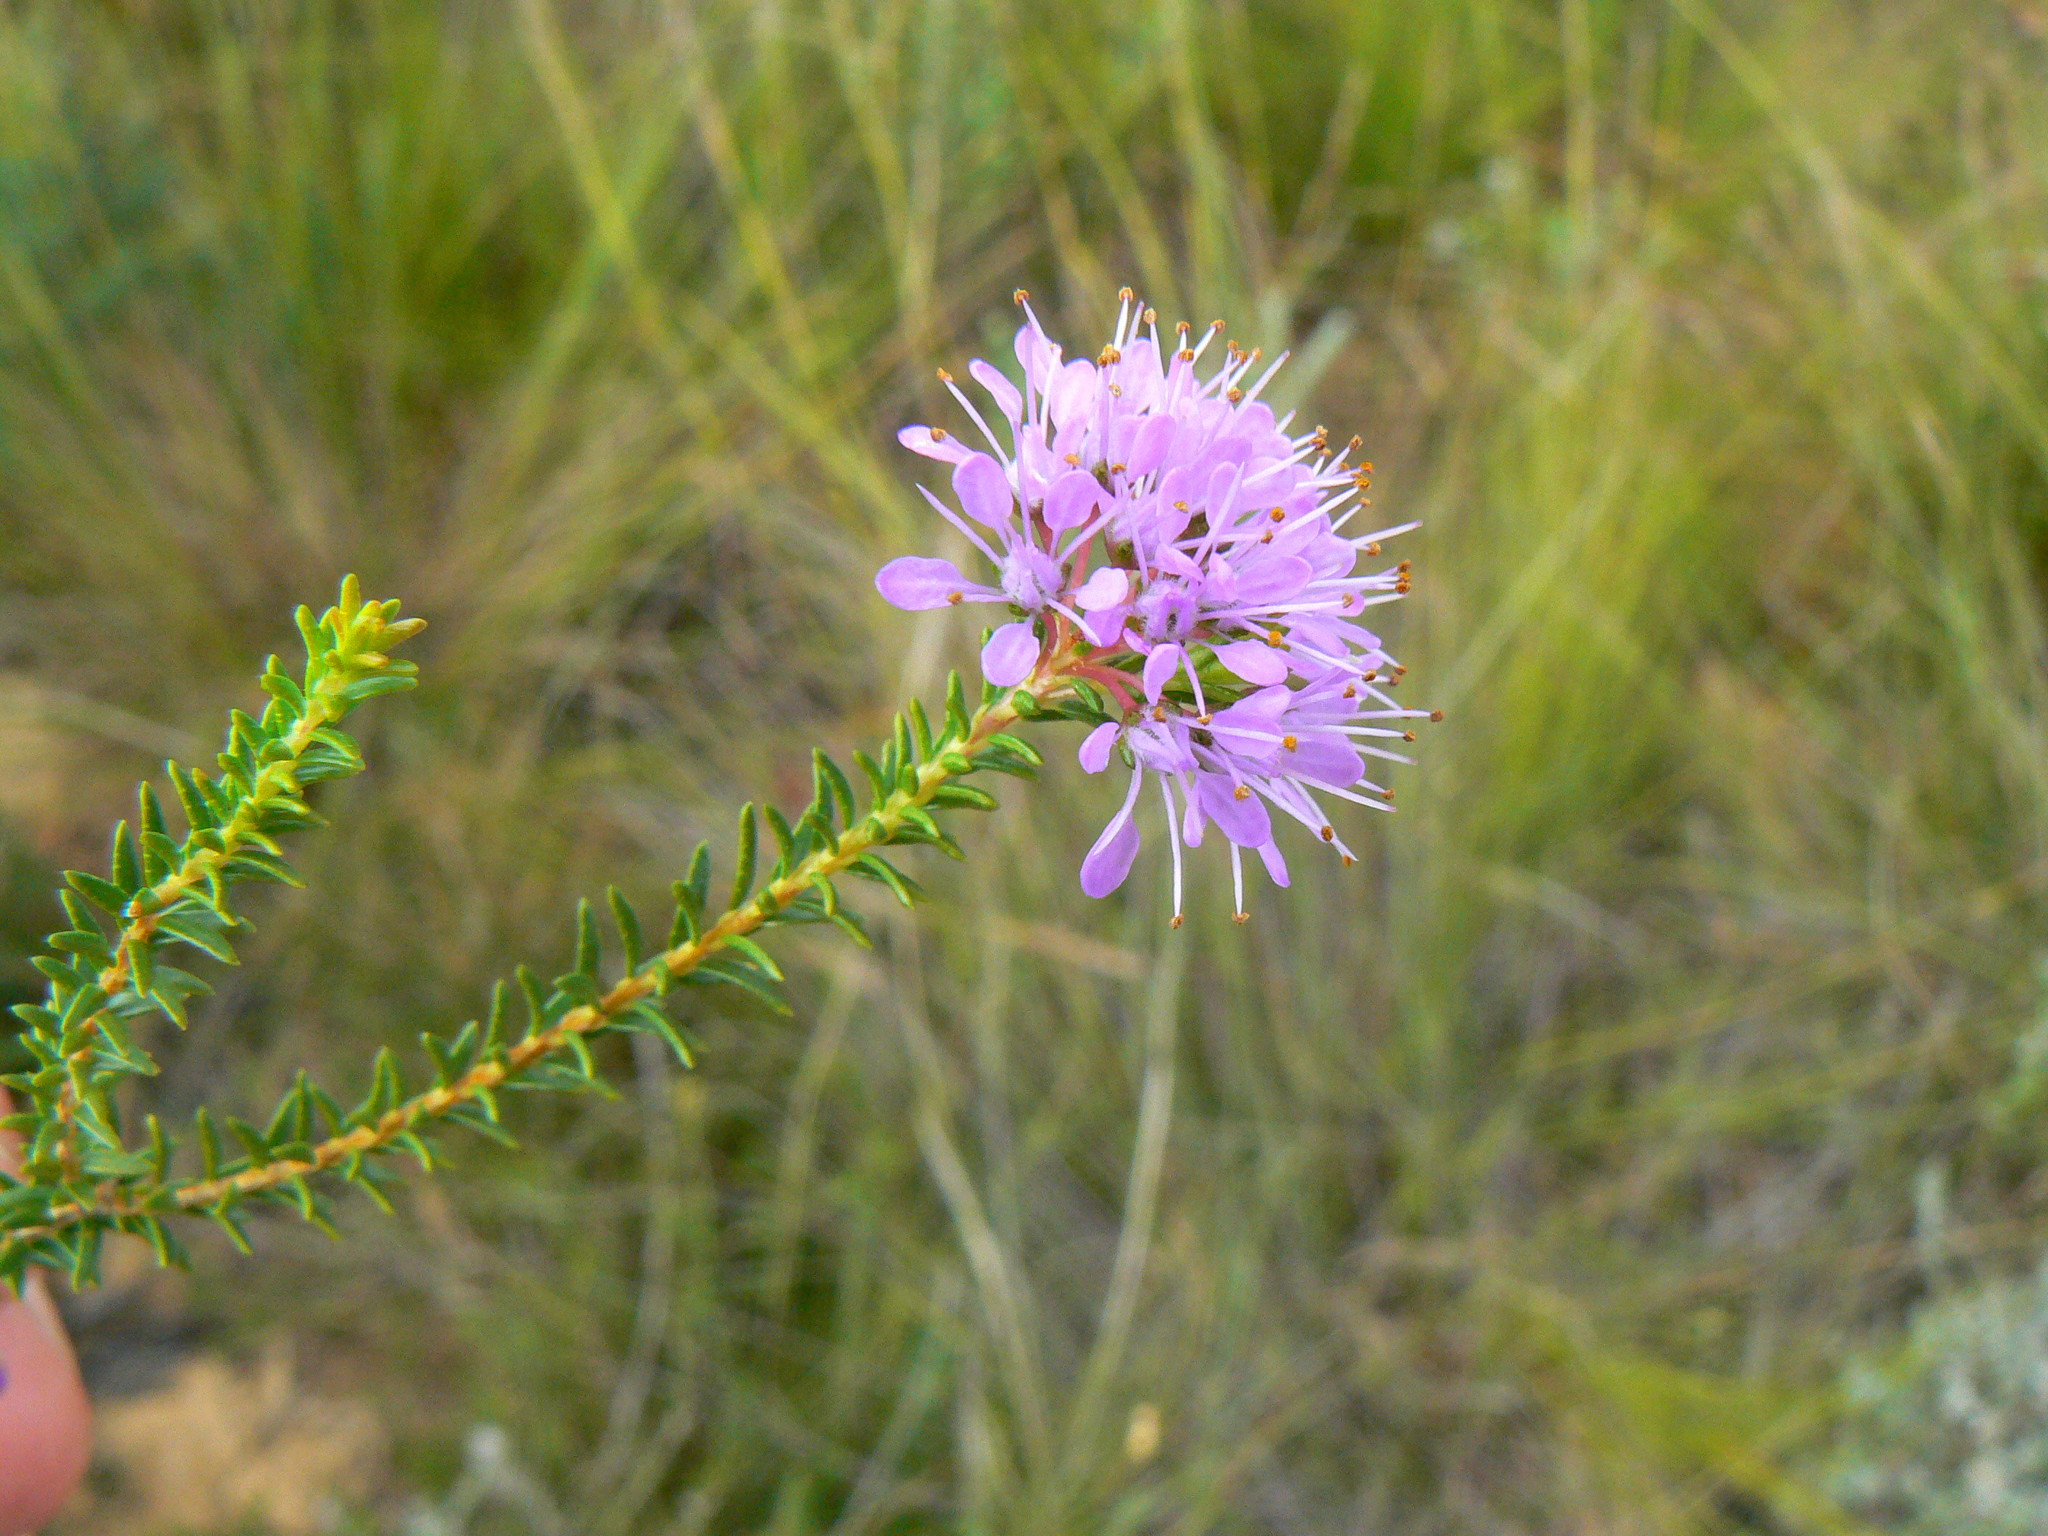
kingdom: Plantae
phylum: Tracheophyta
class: Magnoliopsida
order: Sapindales
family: Rutaceae
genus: Agathosma
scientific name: Agathosma capensis
